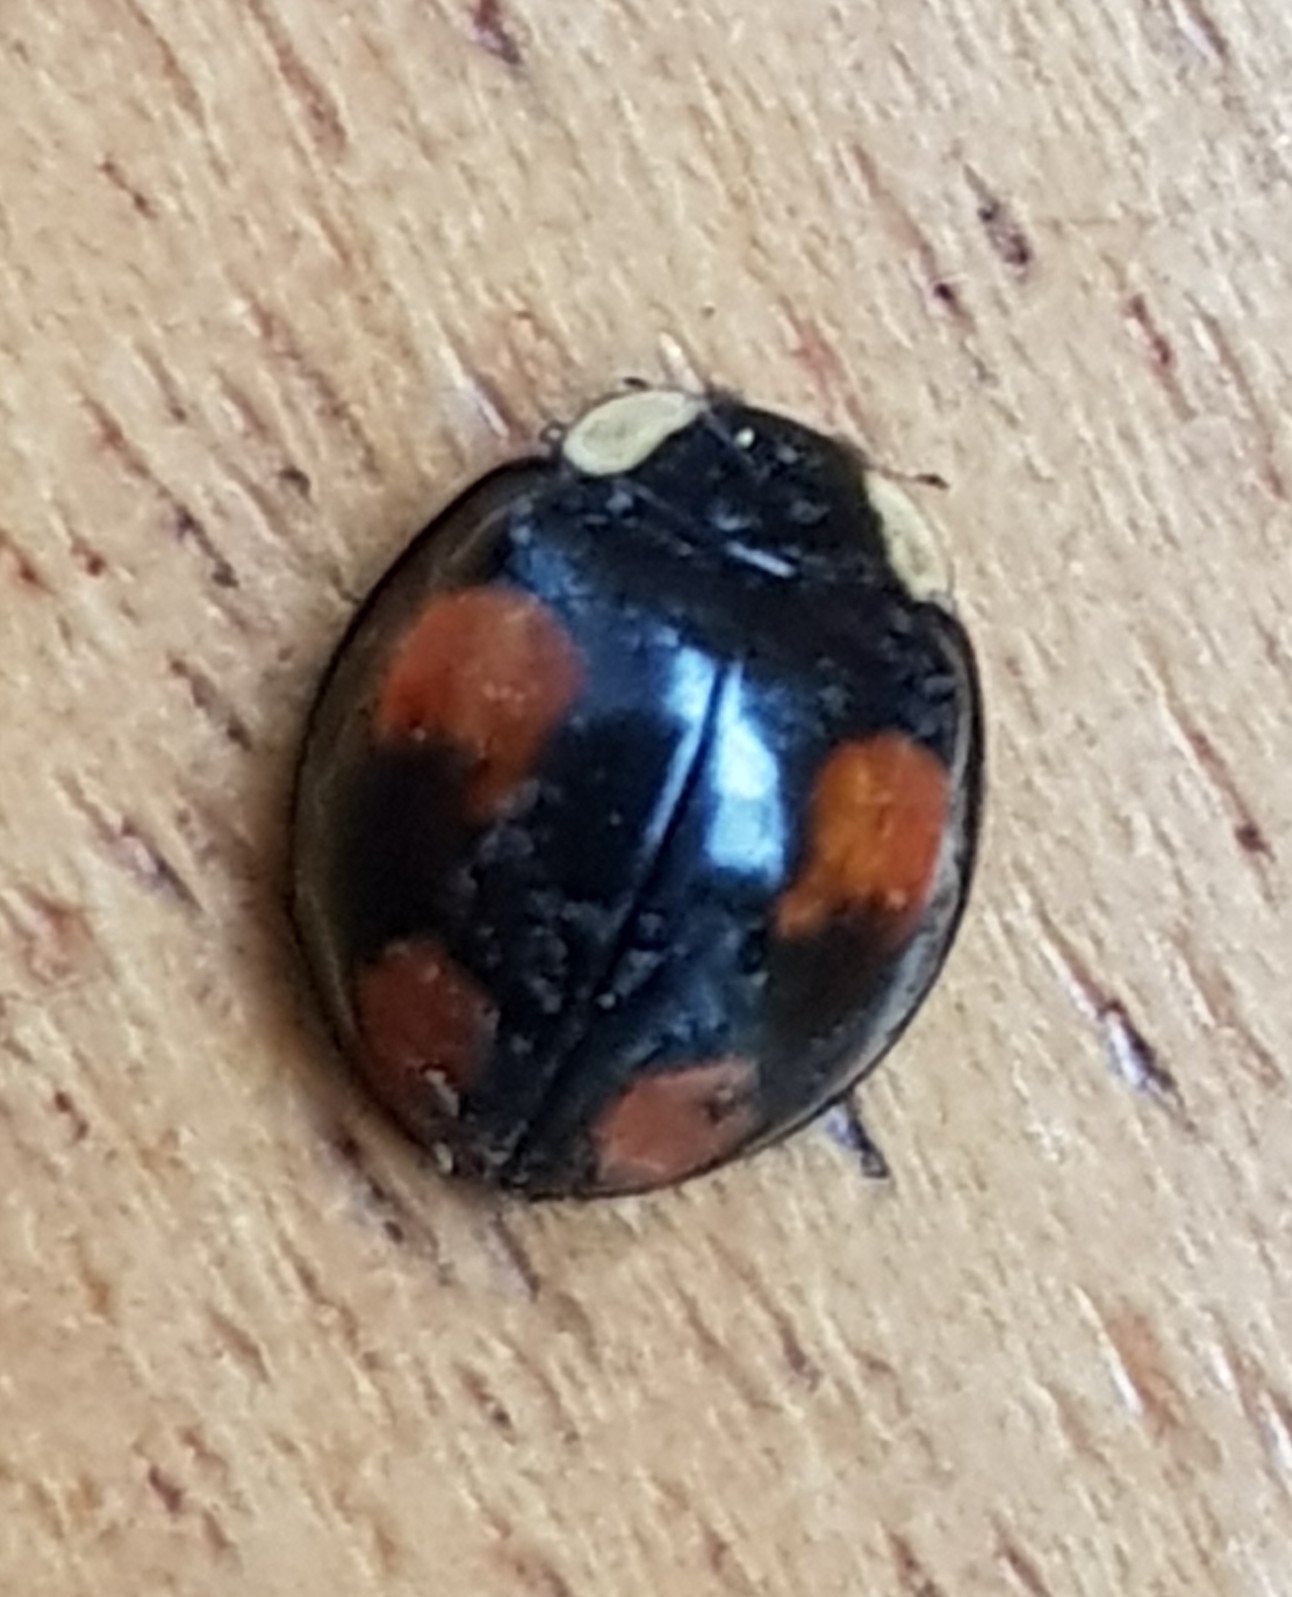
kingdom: Animalia
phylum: Arthropoda
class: Insecta
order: Coleoptera
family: Coccinellidae
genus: Harmonia
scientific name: Harmonia axyridis
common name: Harlequin ladybird
